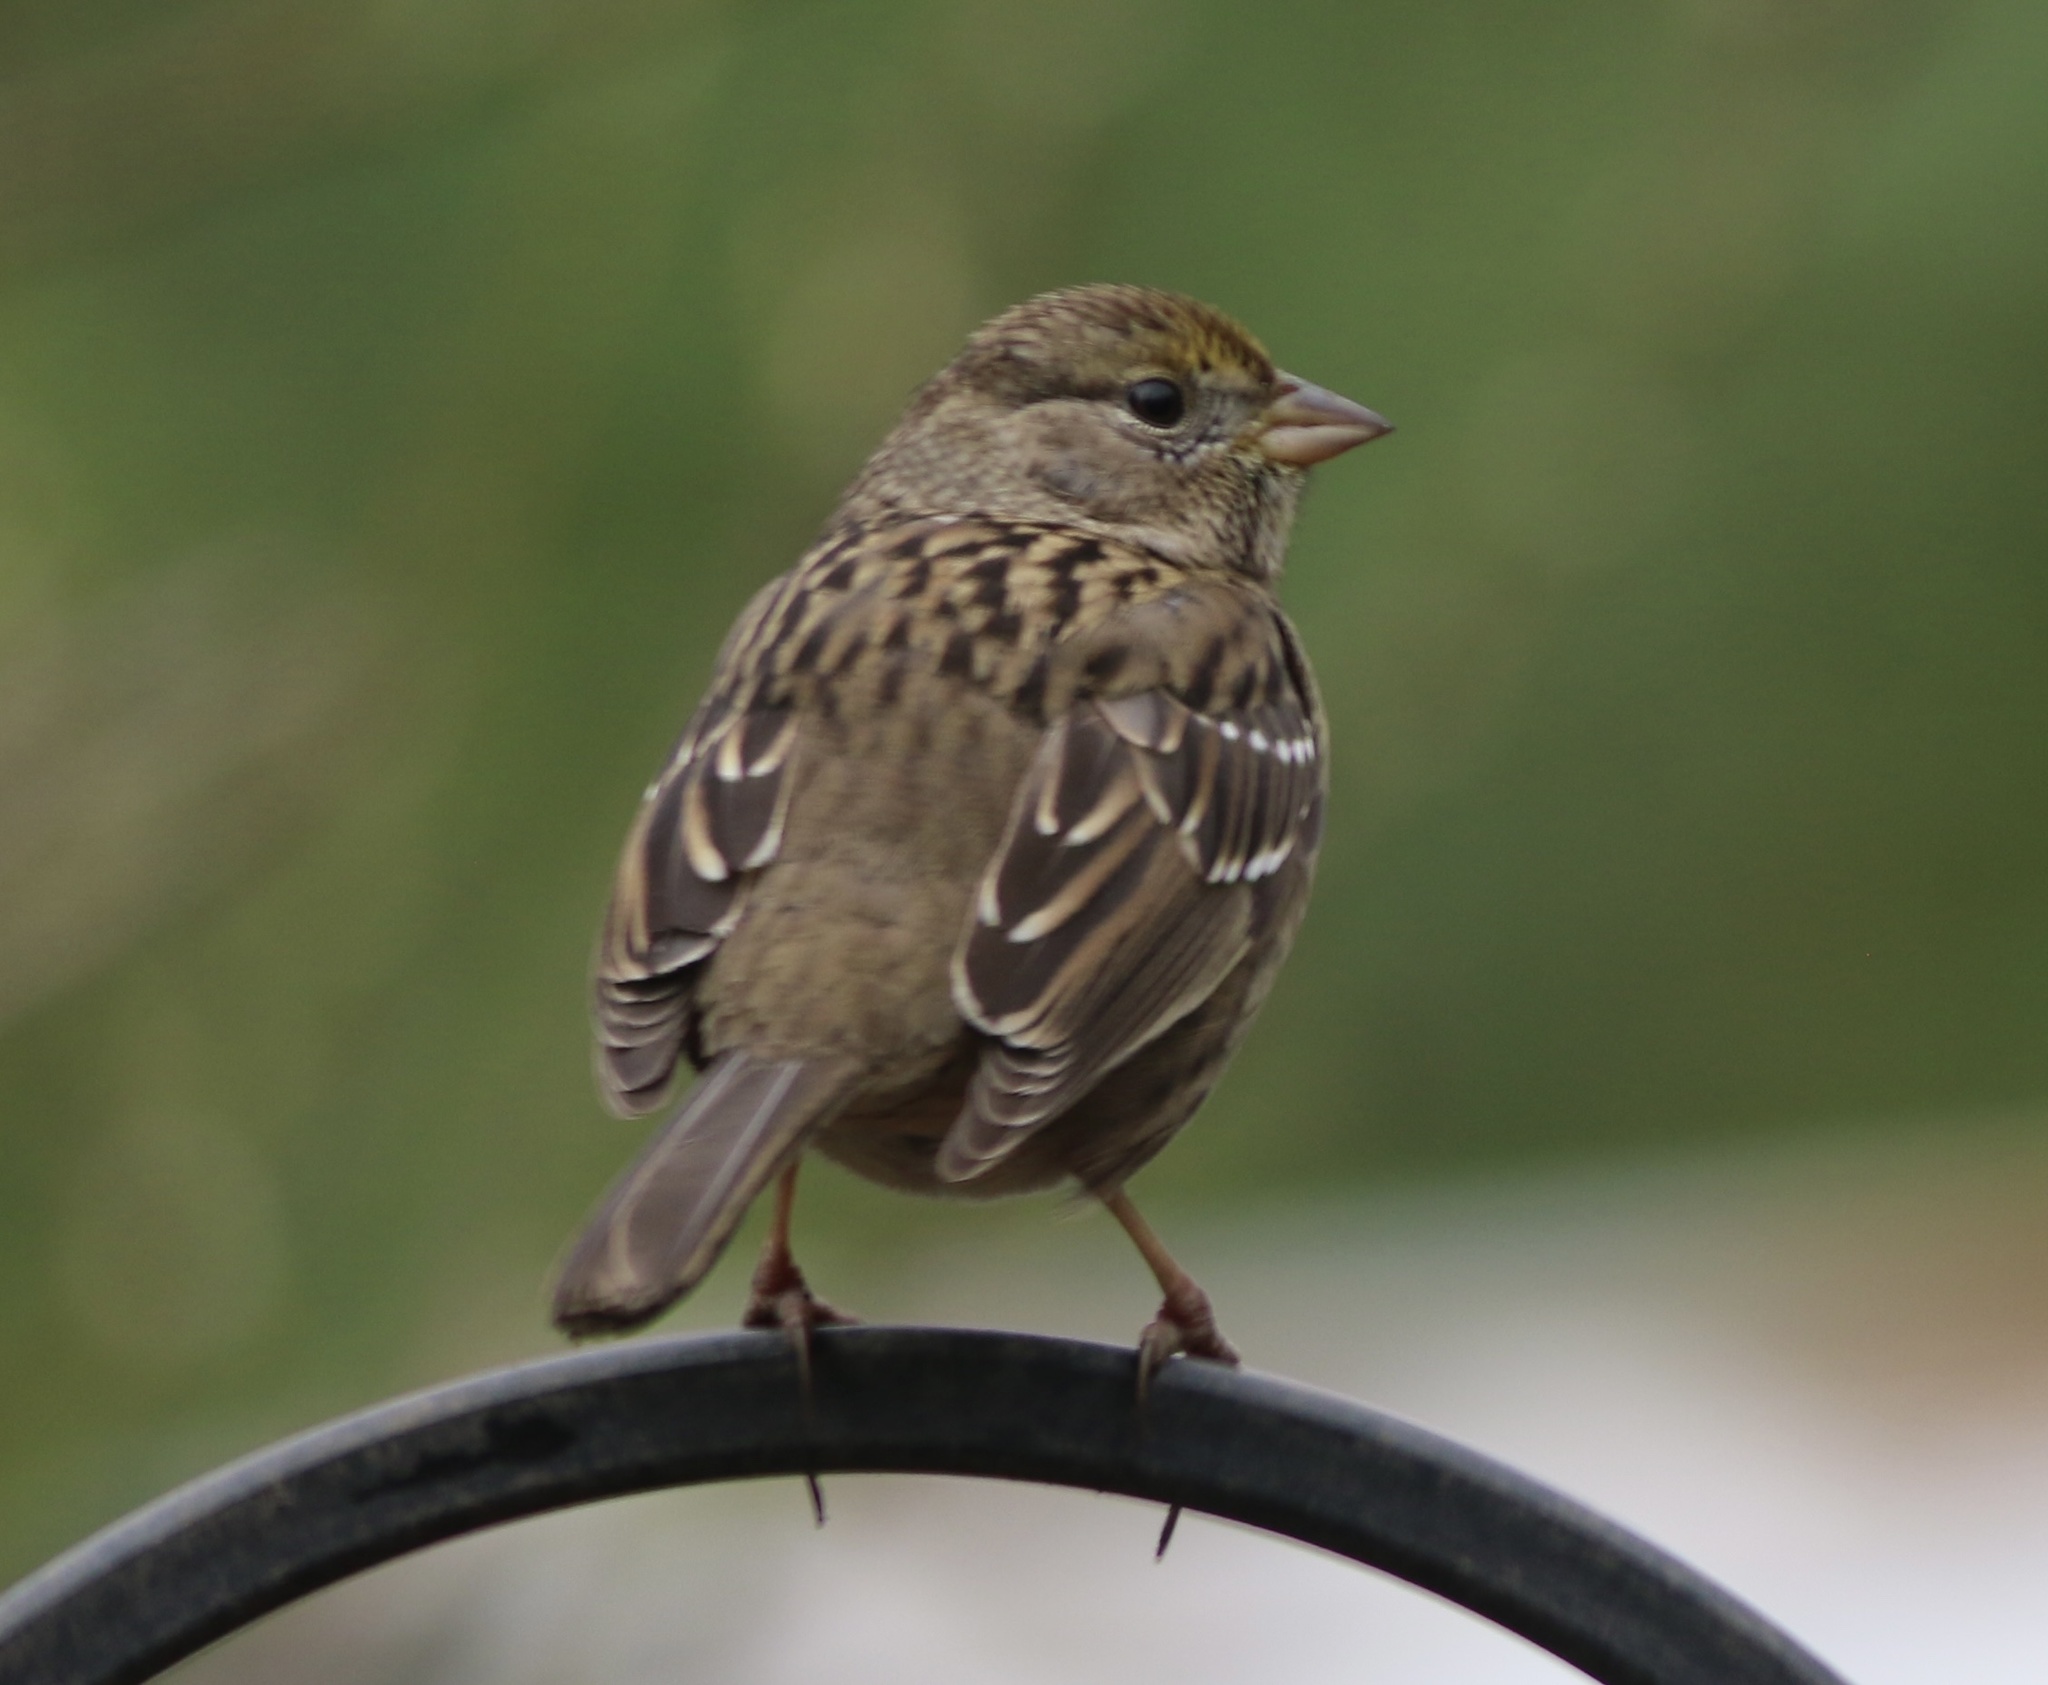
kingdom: Animalia
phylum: Chordata
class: Aves
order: Passeriformes
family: Passerellidae
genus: Zonotrichia
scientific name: Zonotrichia atricapilla
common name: Golden-crowned sparrow
